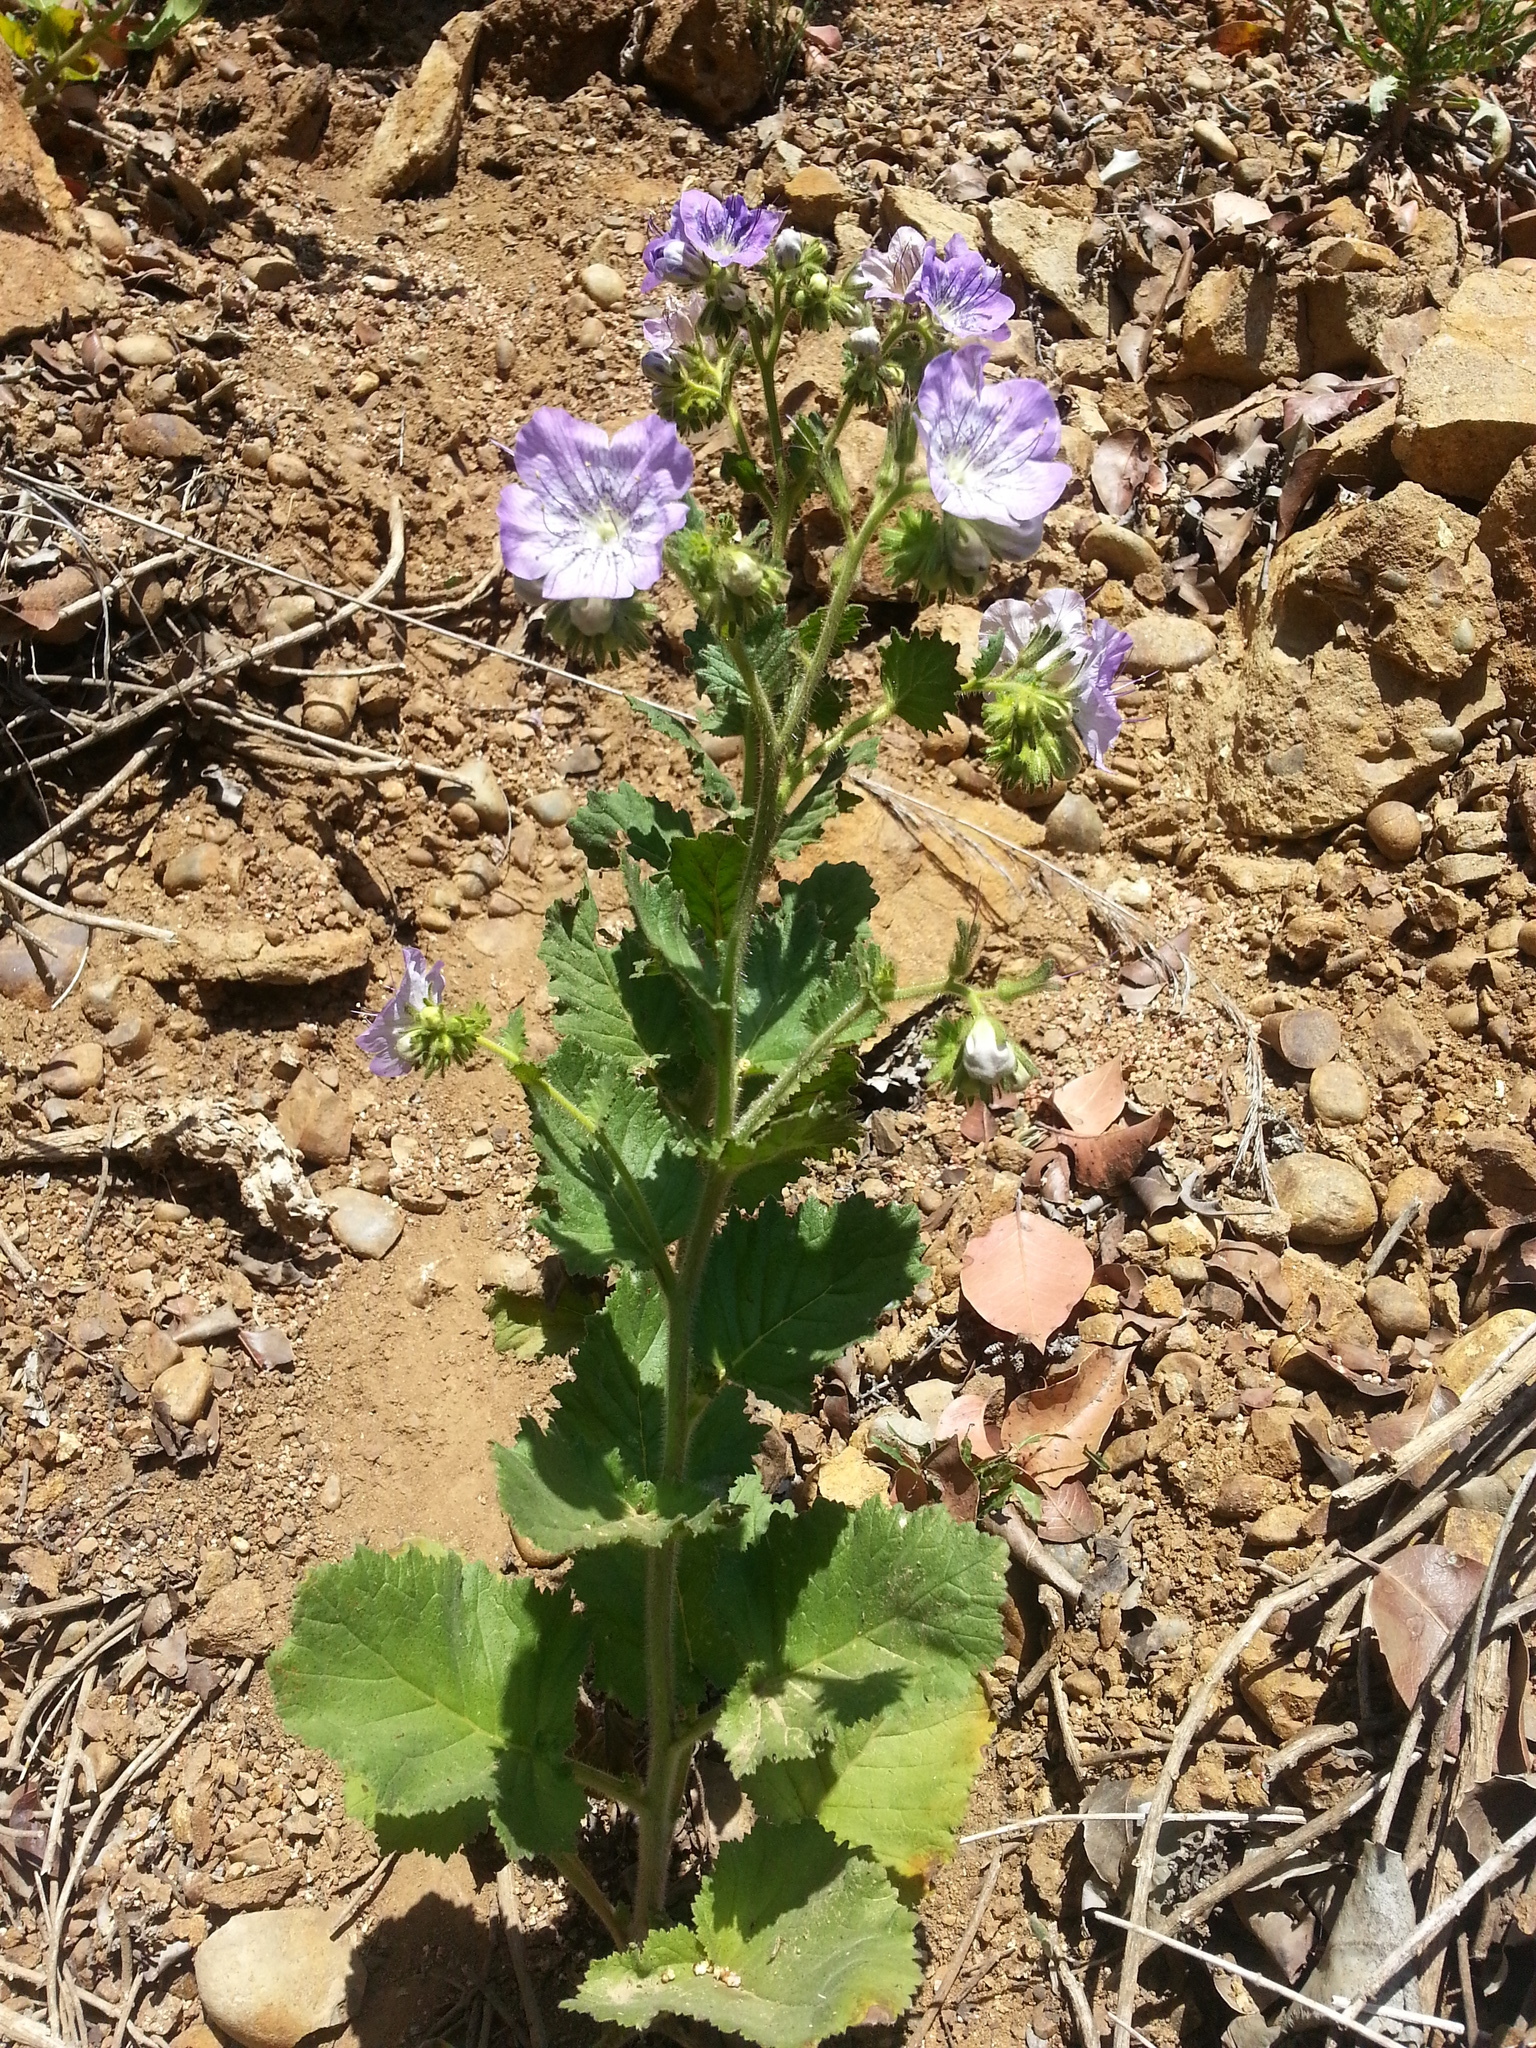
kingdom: Plantae
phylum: Tracheophyta
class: Magnoliopsida
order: Boraginales
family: Hydrophyllaceae
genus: Phacelia
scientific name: Phacelia grandiflora
